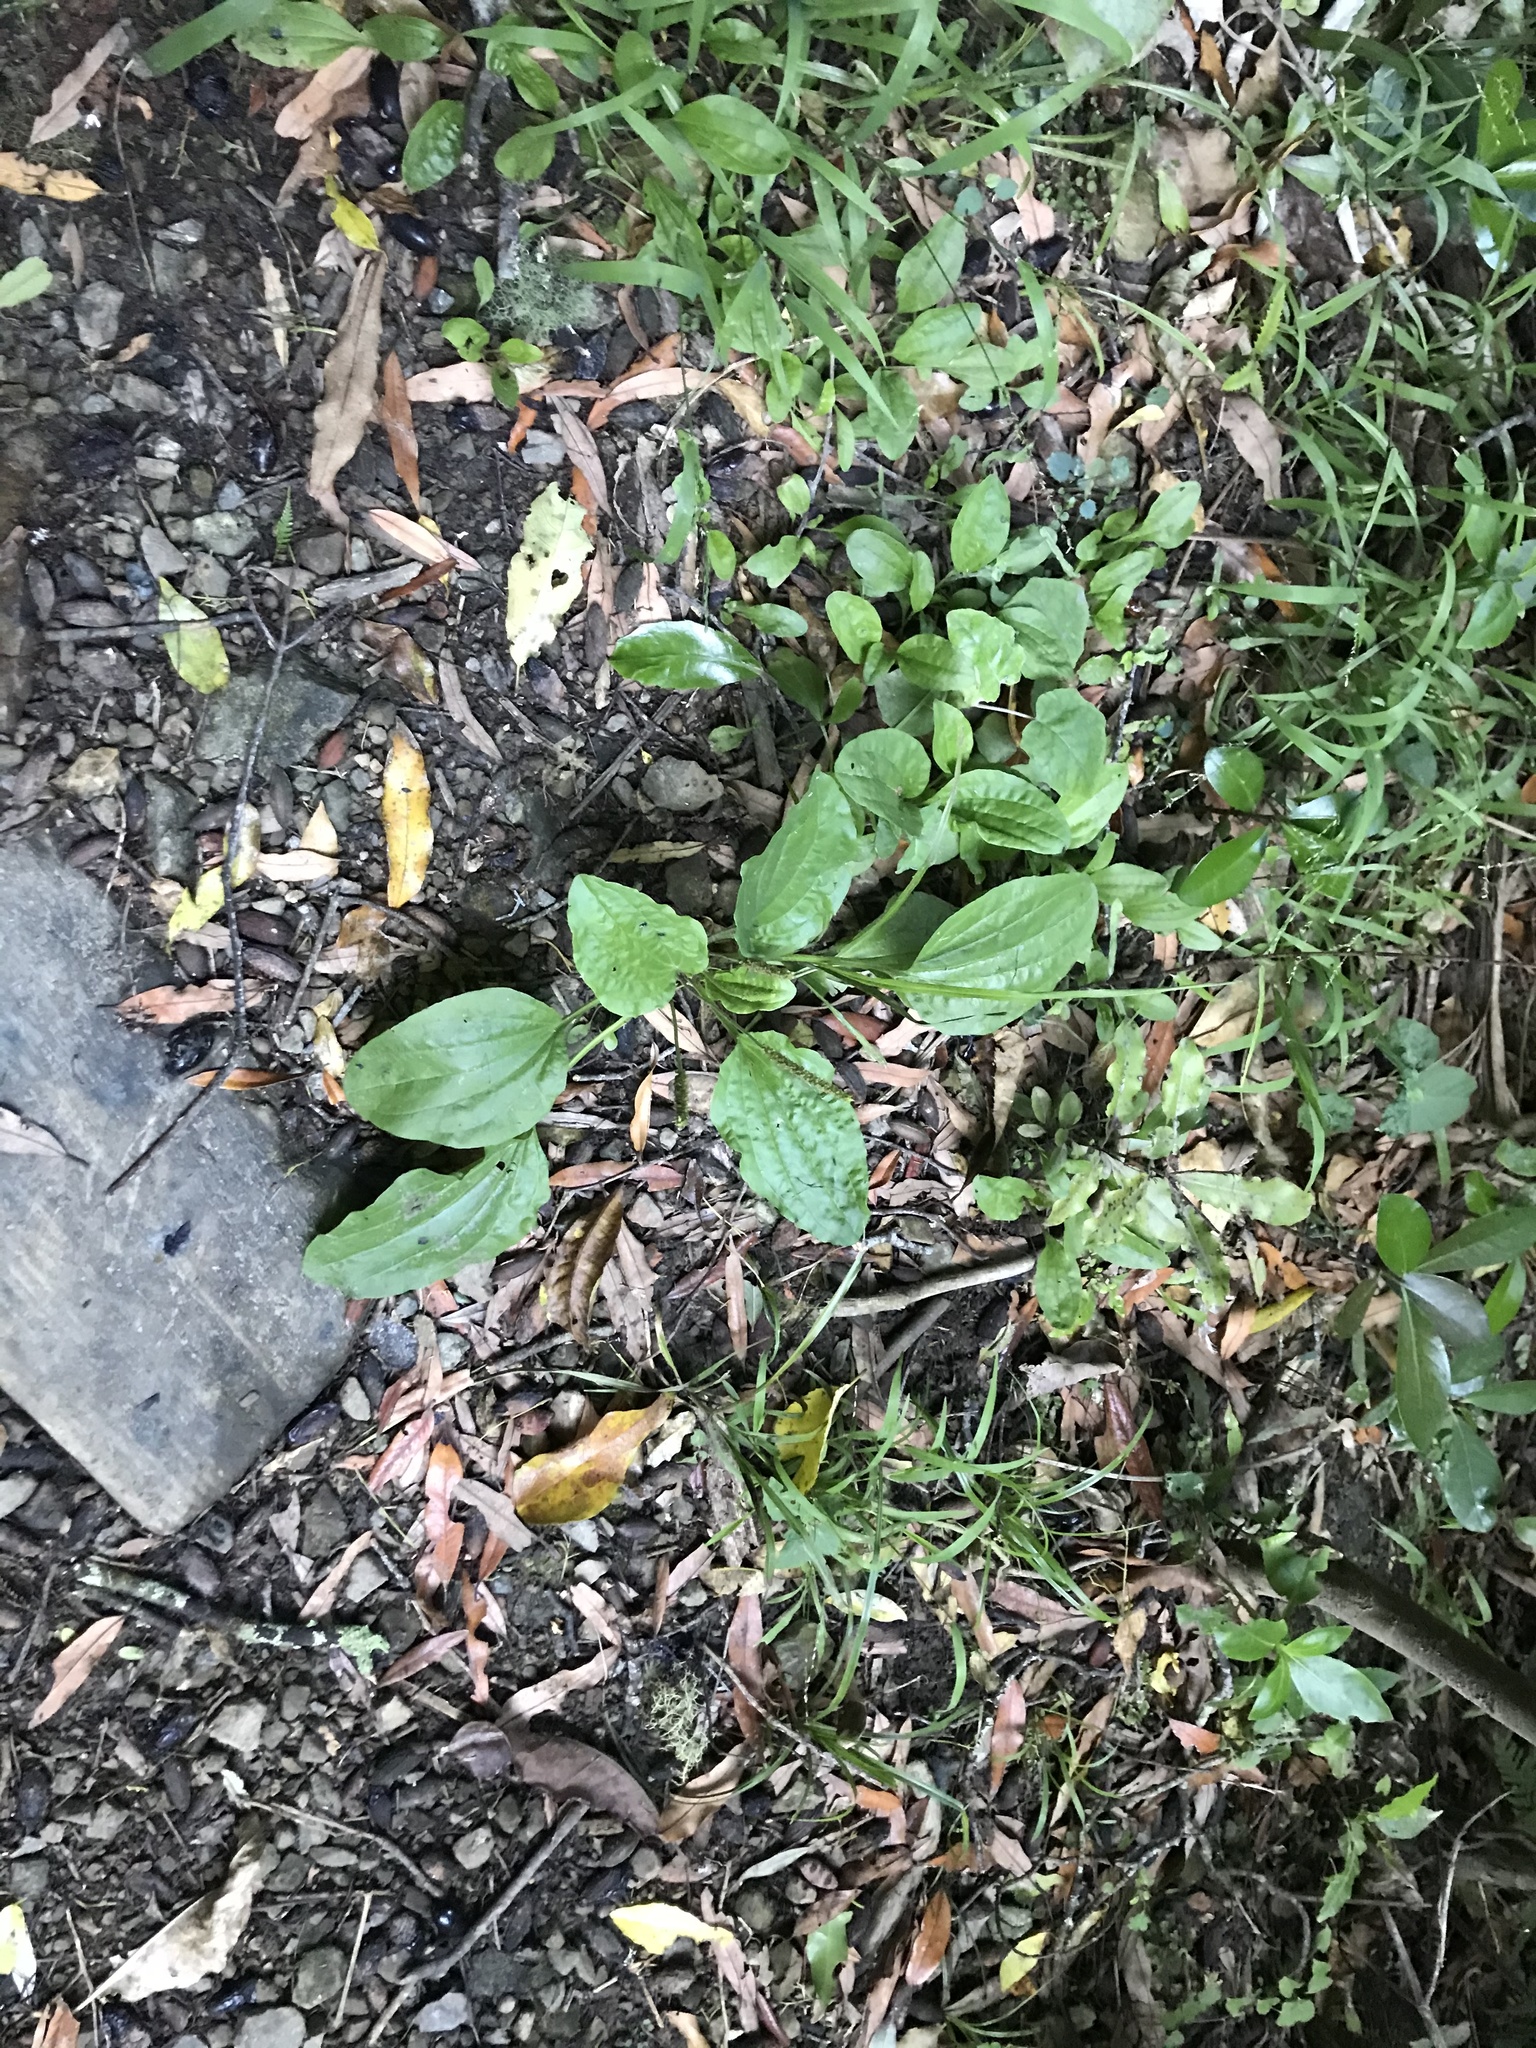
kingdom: Plantae
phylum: Tracheophyta
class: Magnoliopsida
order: Lamiales
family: Plantaginaceae
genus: Plantago
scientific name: Plantago major
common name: Common plantain
